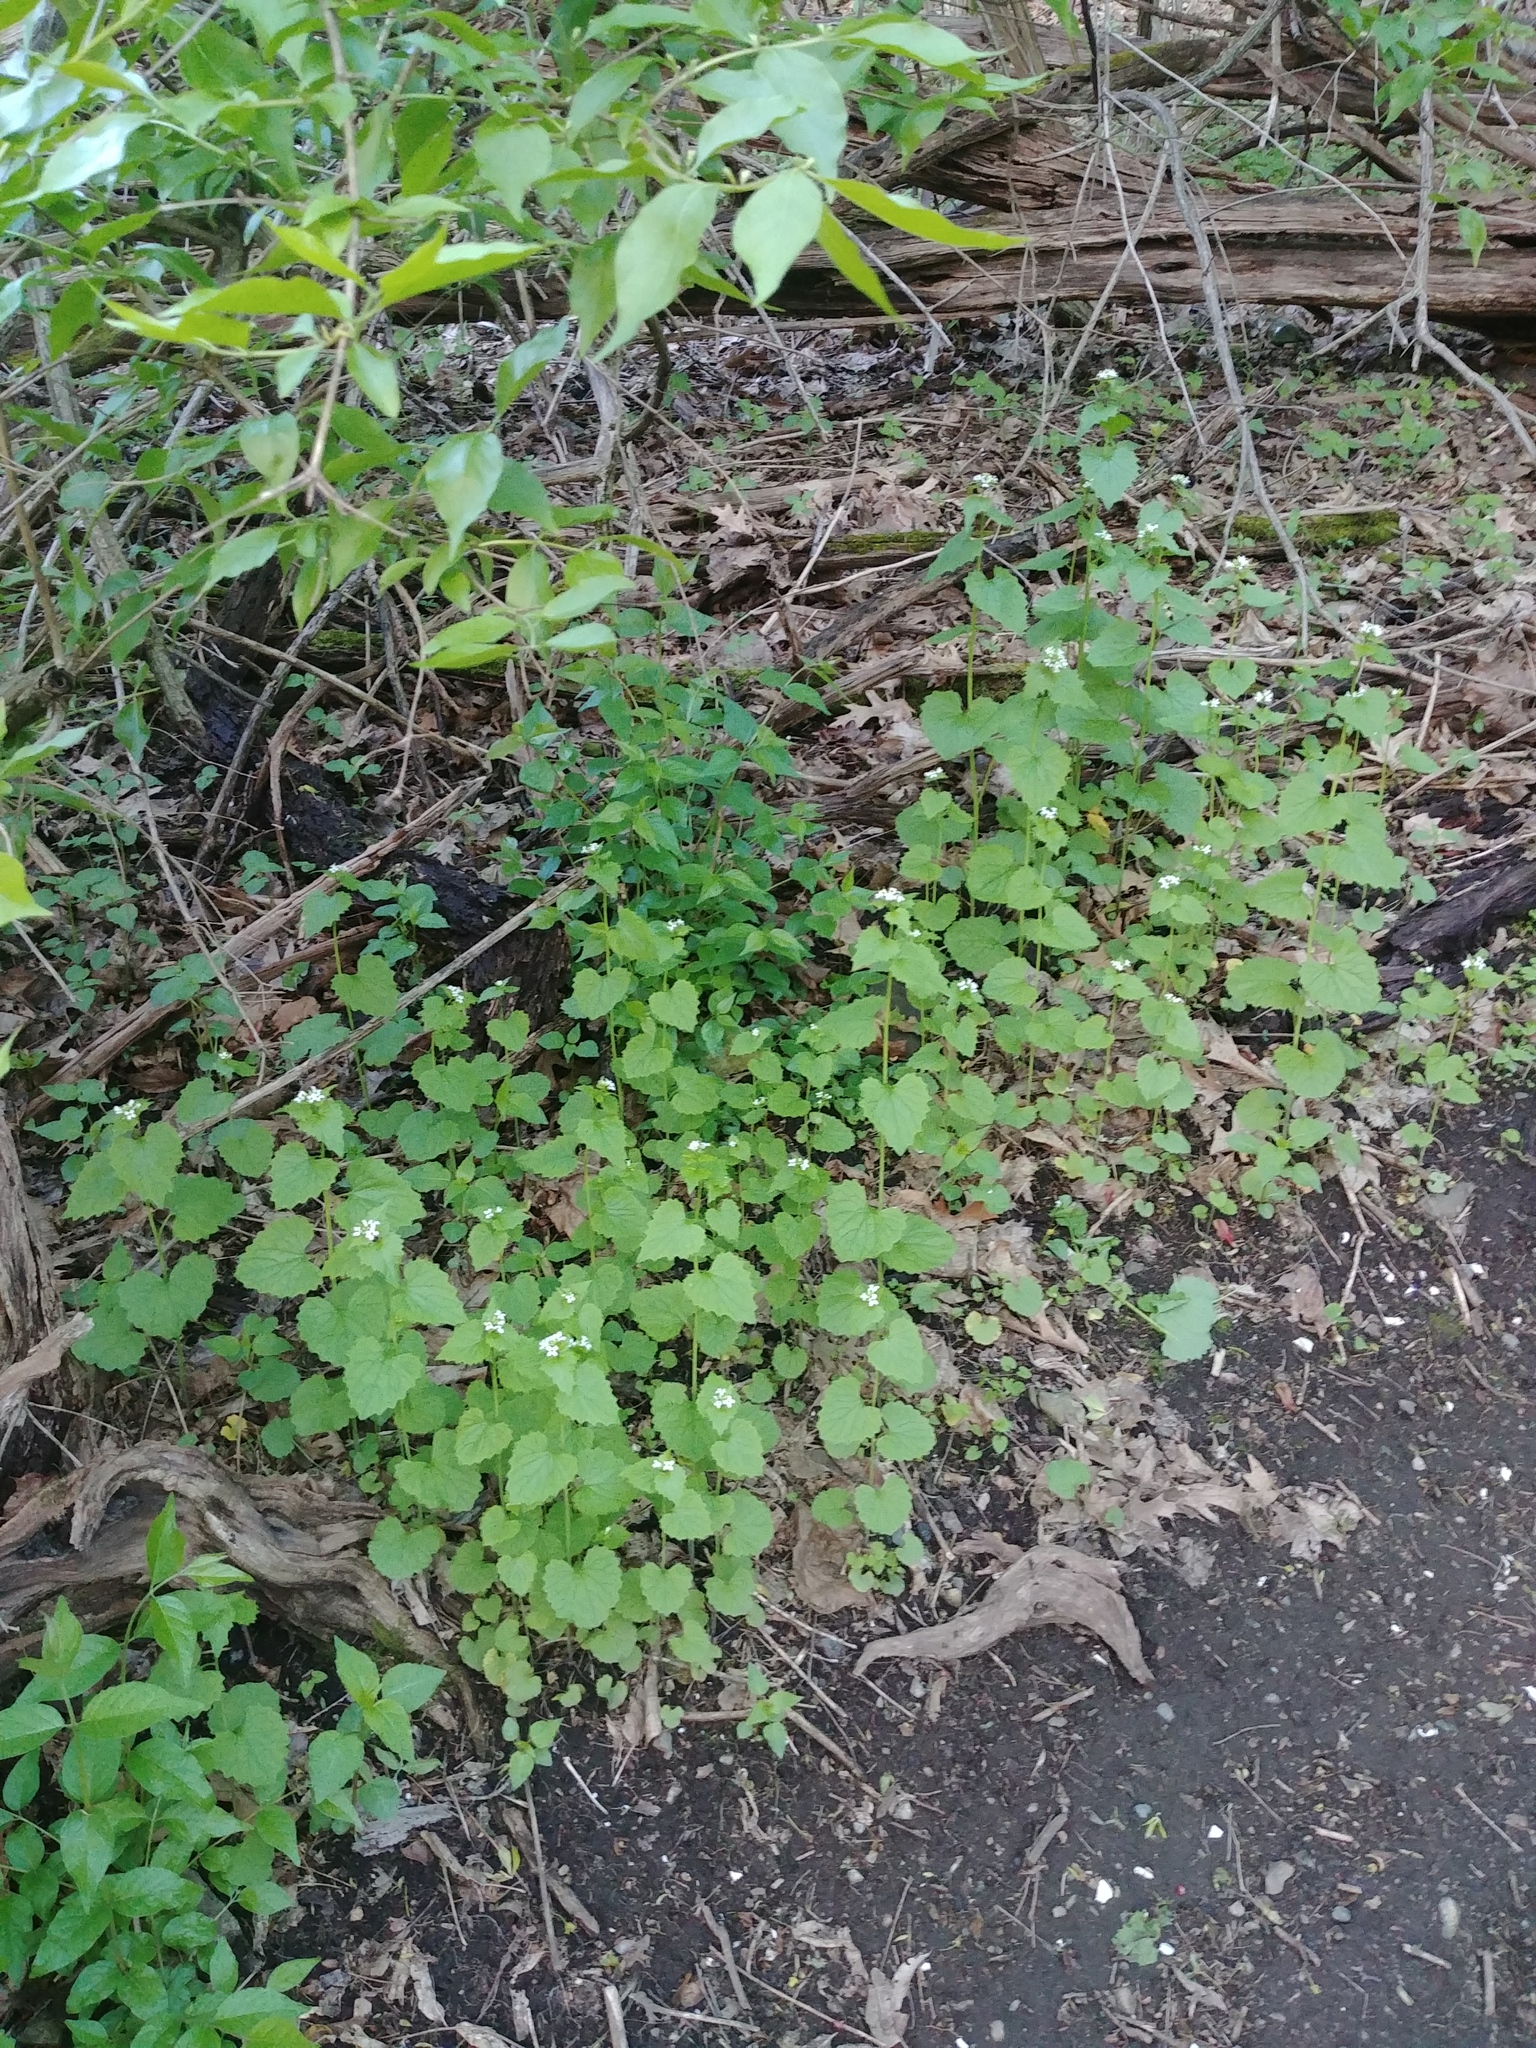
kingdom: Plantae
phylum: Tracheophyta
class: Magnoliopsida
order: Brassicales
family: Brassicaceae
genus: Alliaria
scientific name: Alliaria petiolata
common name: Garlic mustard
